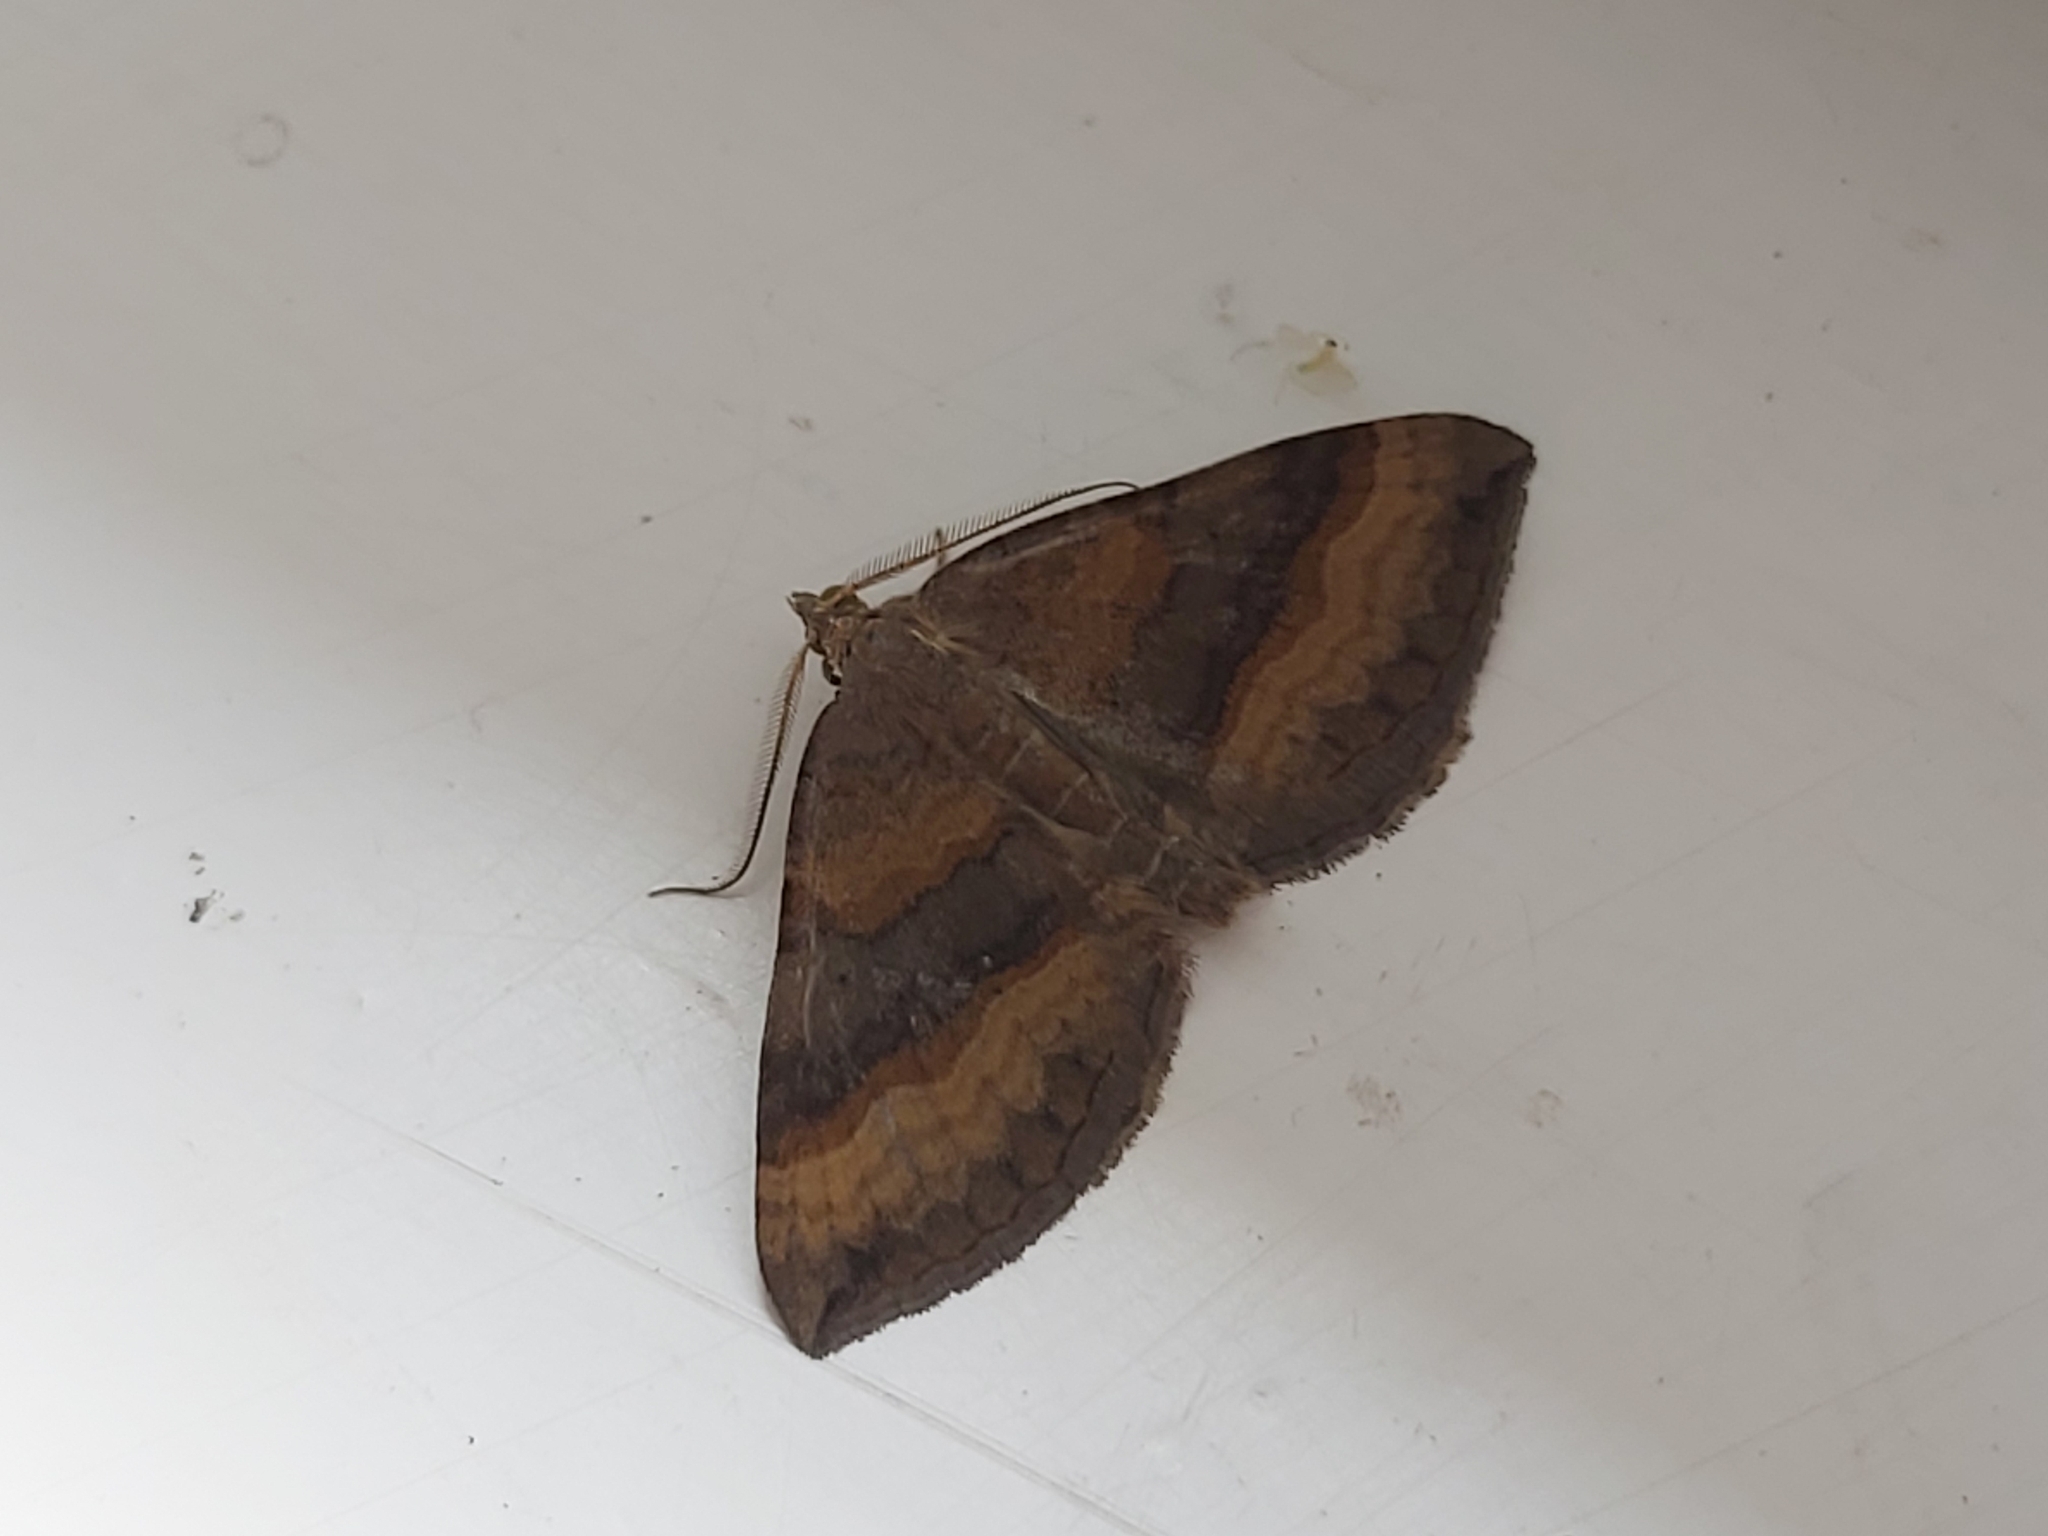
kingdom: Animalia
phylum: Arthropoda
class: Insecta
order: Lepidoptera
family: Geometridae
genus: Scotopteryx
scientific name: Scotopteryx chenopodiata
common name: Shaded broad-bar
